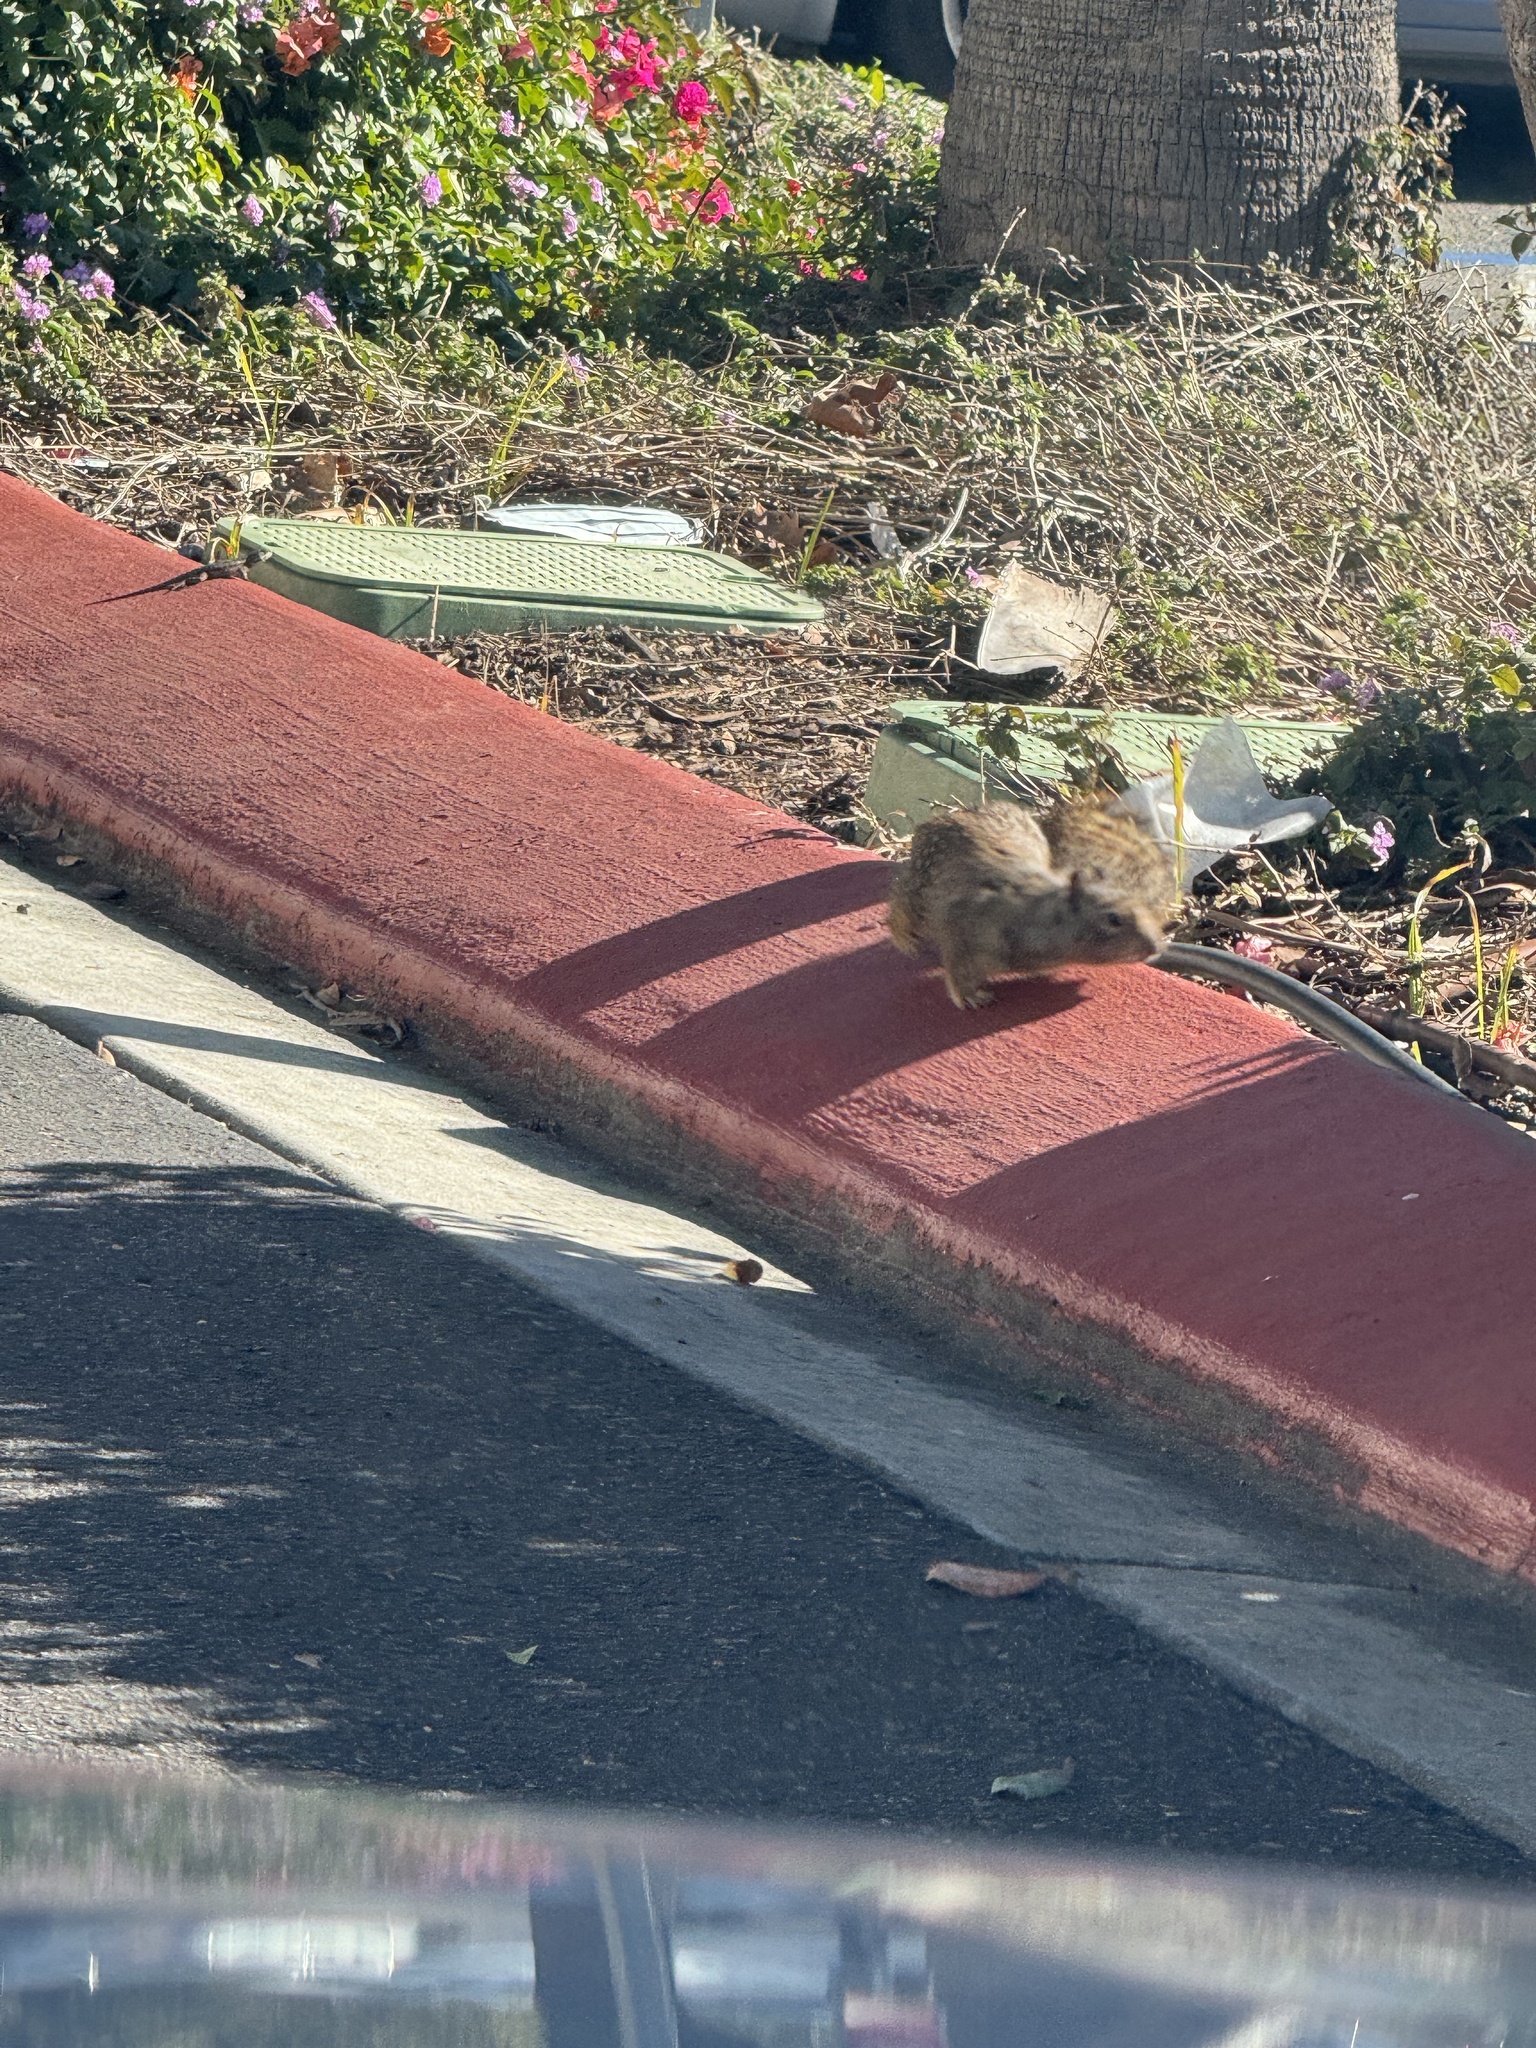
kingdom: Animalia
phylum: Chordata
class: Mammalia
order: Rodentia
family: Sciuridae
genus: Otospermophilus
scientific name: Otospermophilus beecheyi
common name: California ground squirrel
